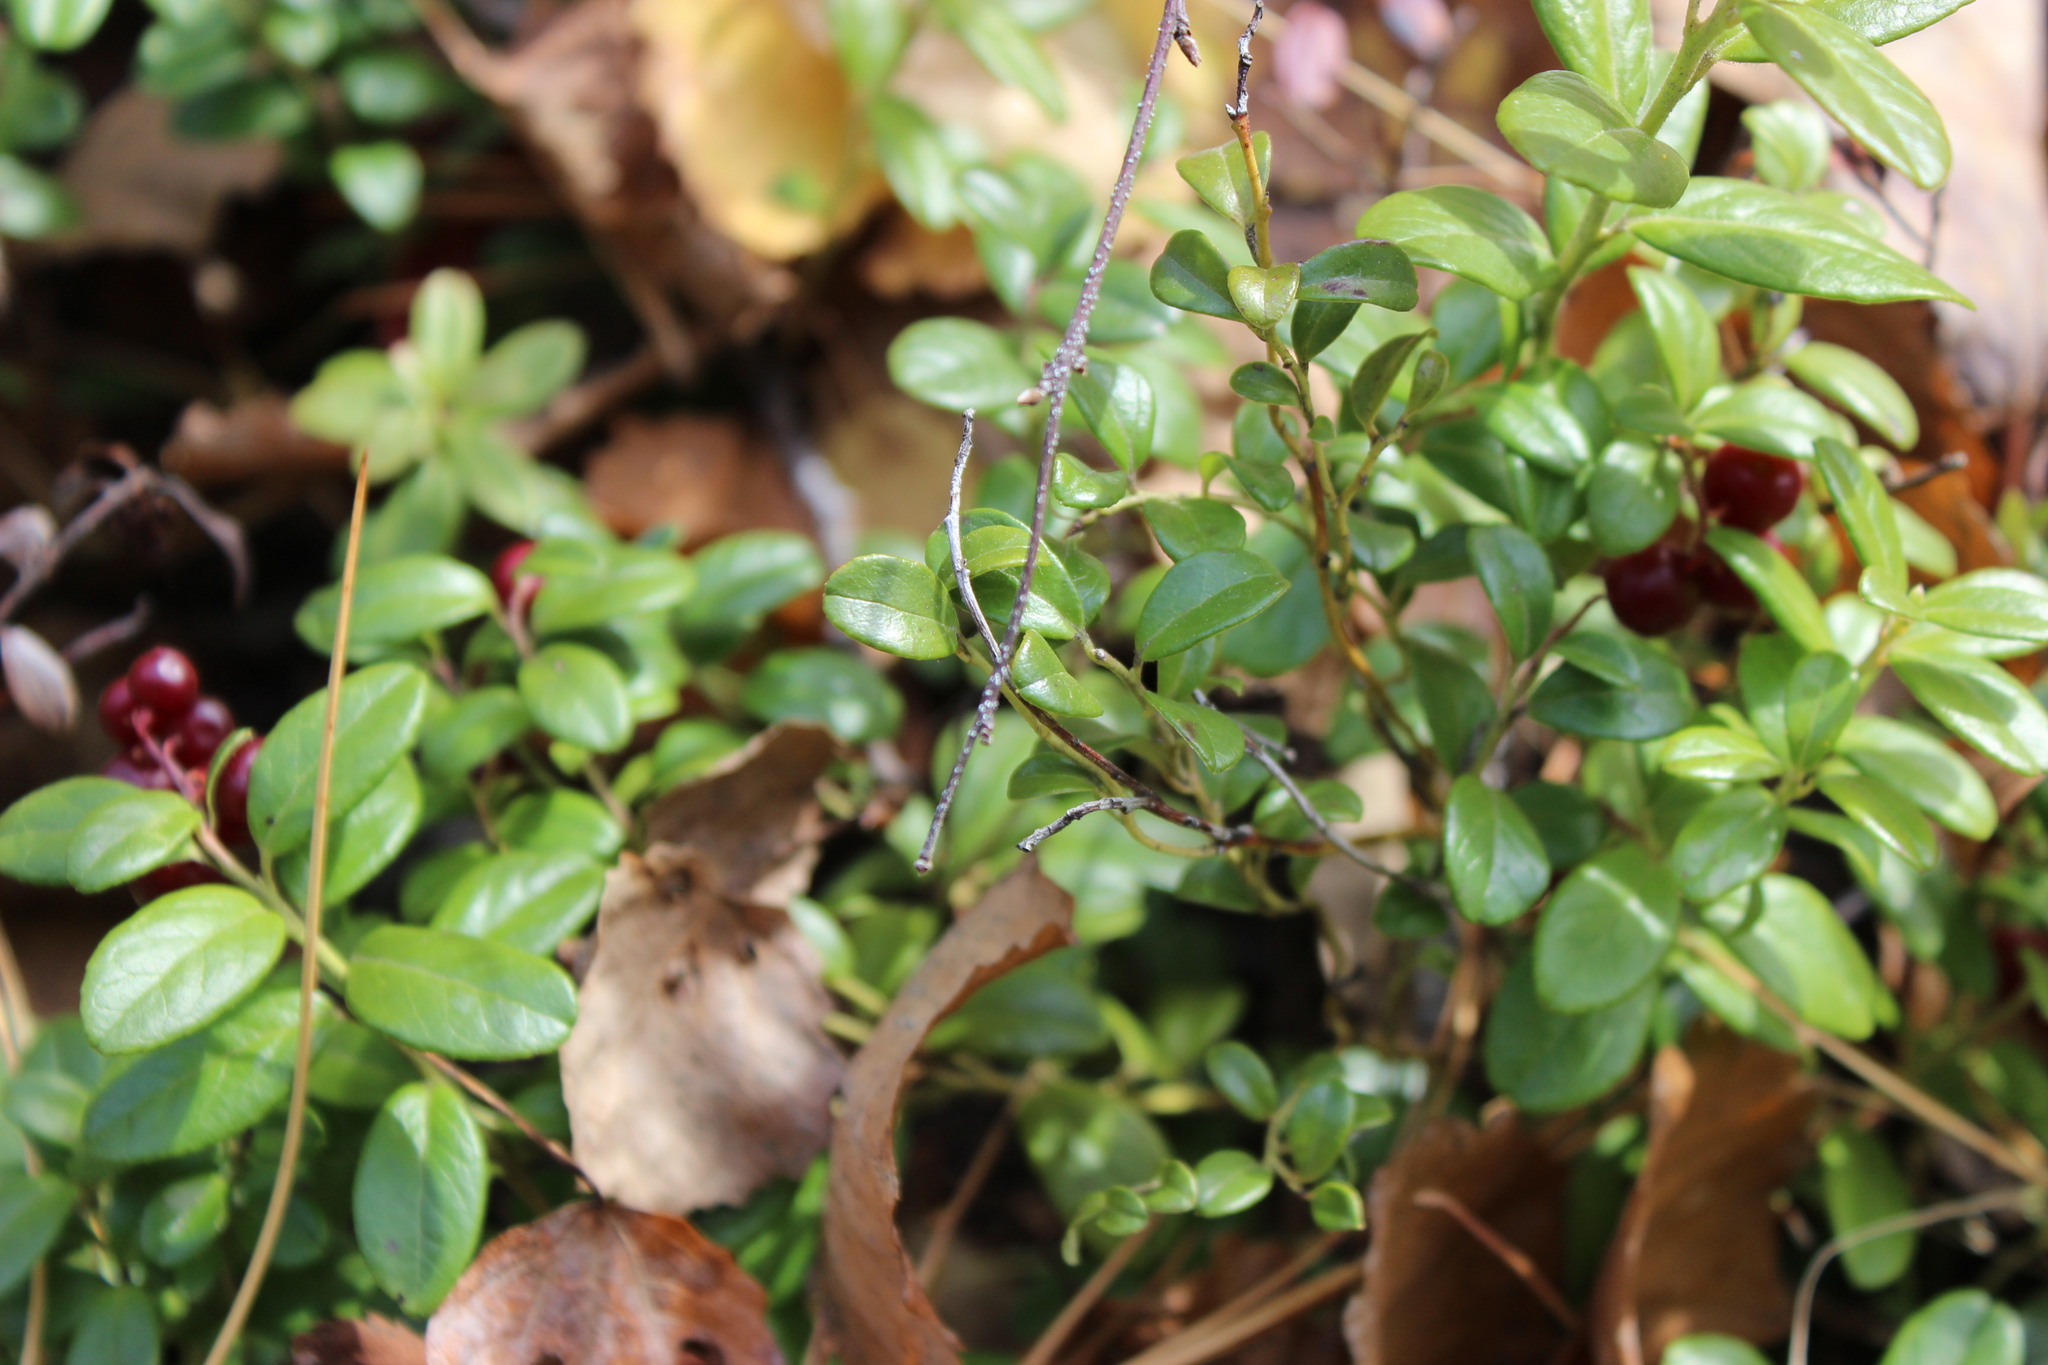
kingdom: Plantae
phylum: Tracheophyta
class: Magnoliopsida
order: Ericales
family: Ericaceae
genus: Vaccinium
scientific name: Vaccinium vitis-idaea
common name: Cowberry
